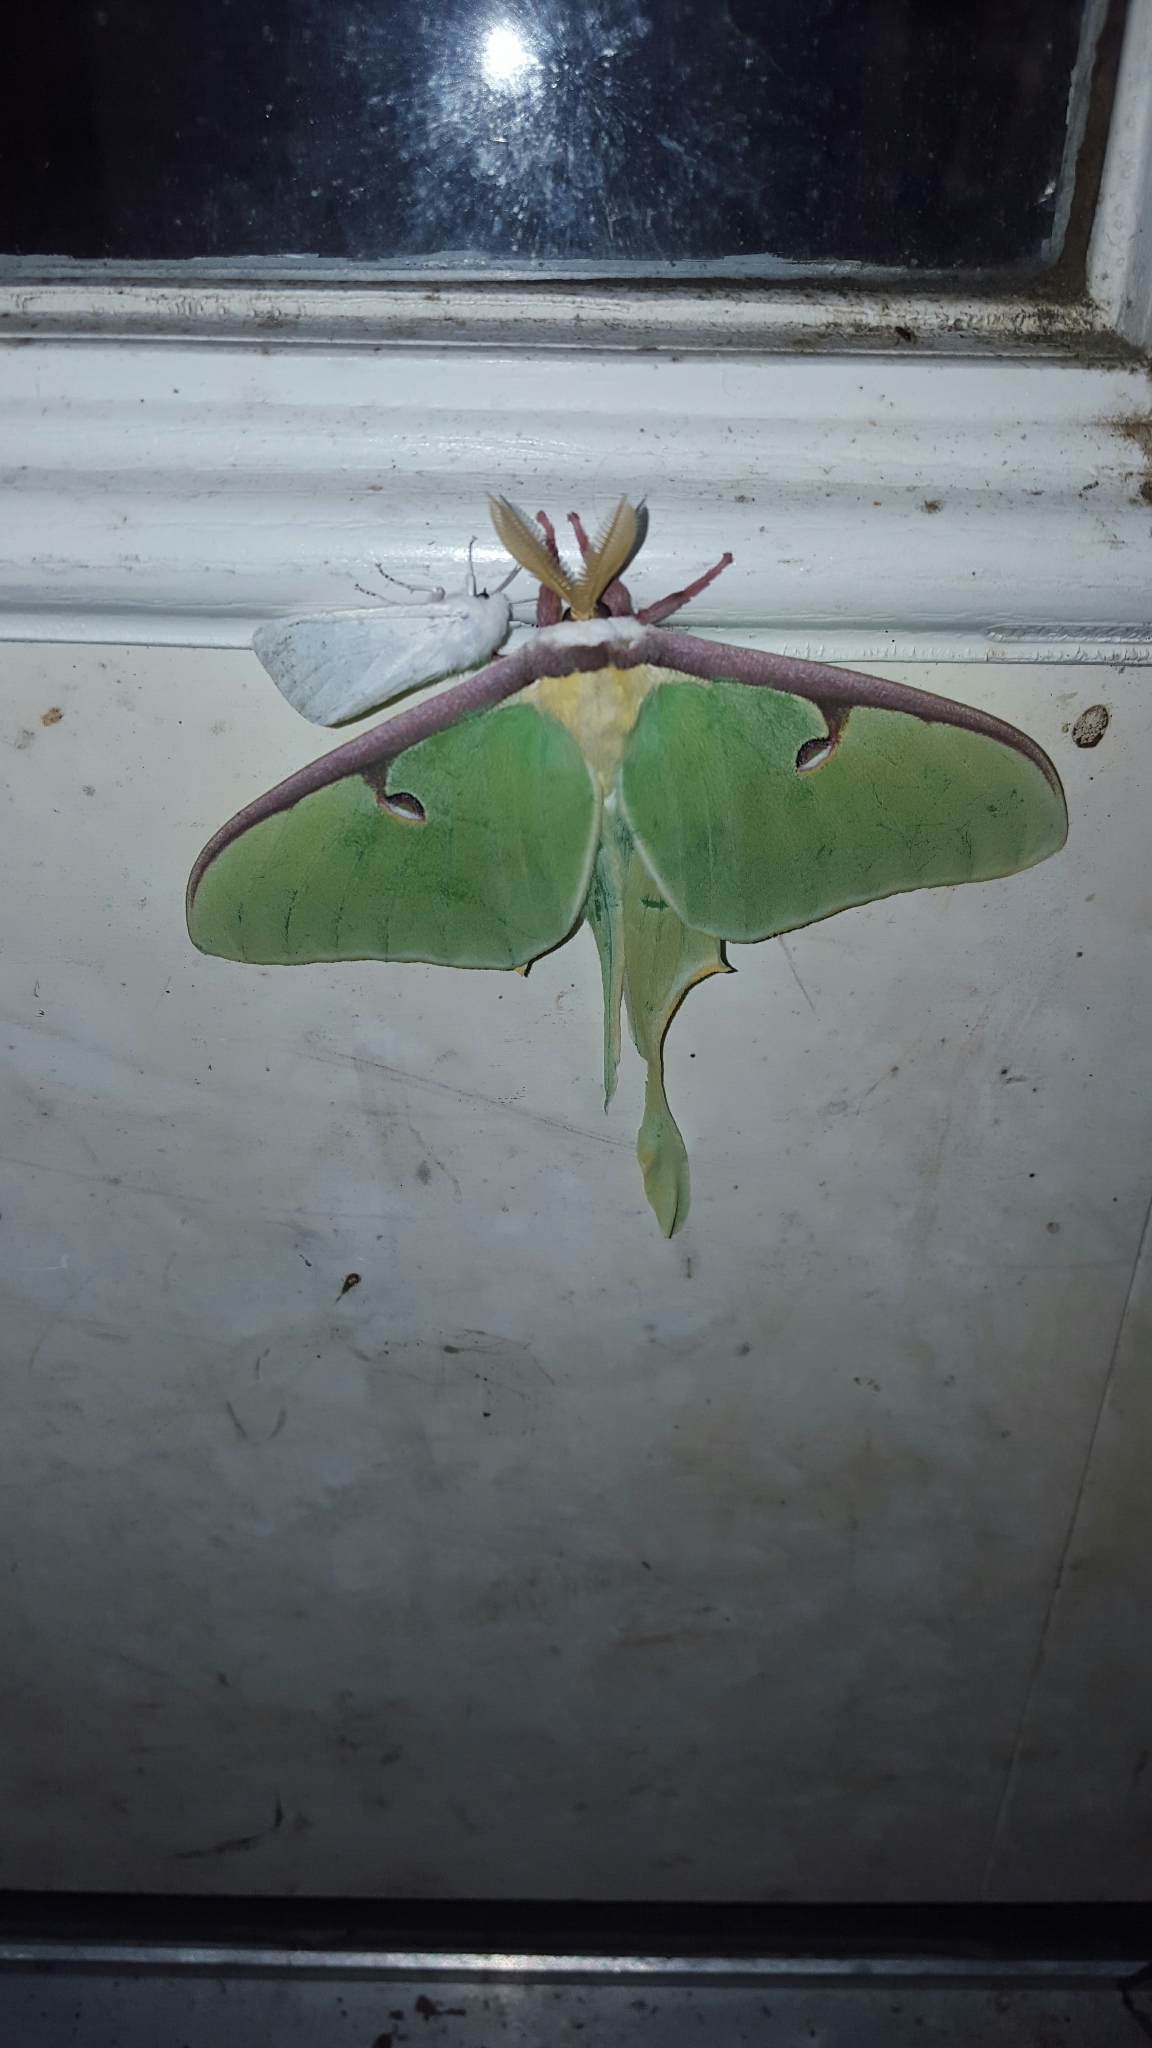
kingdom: Animalia
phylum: Arthropoda
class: Insecta
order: Lepidoptera
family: Saturniidae
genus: Actias
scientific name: Actias luna
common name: Luna moth
